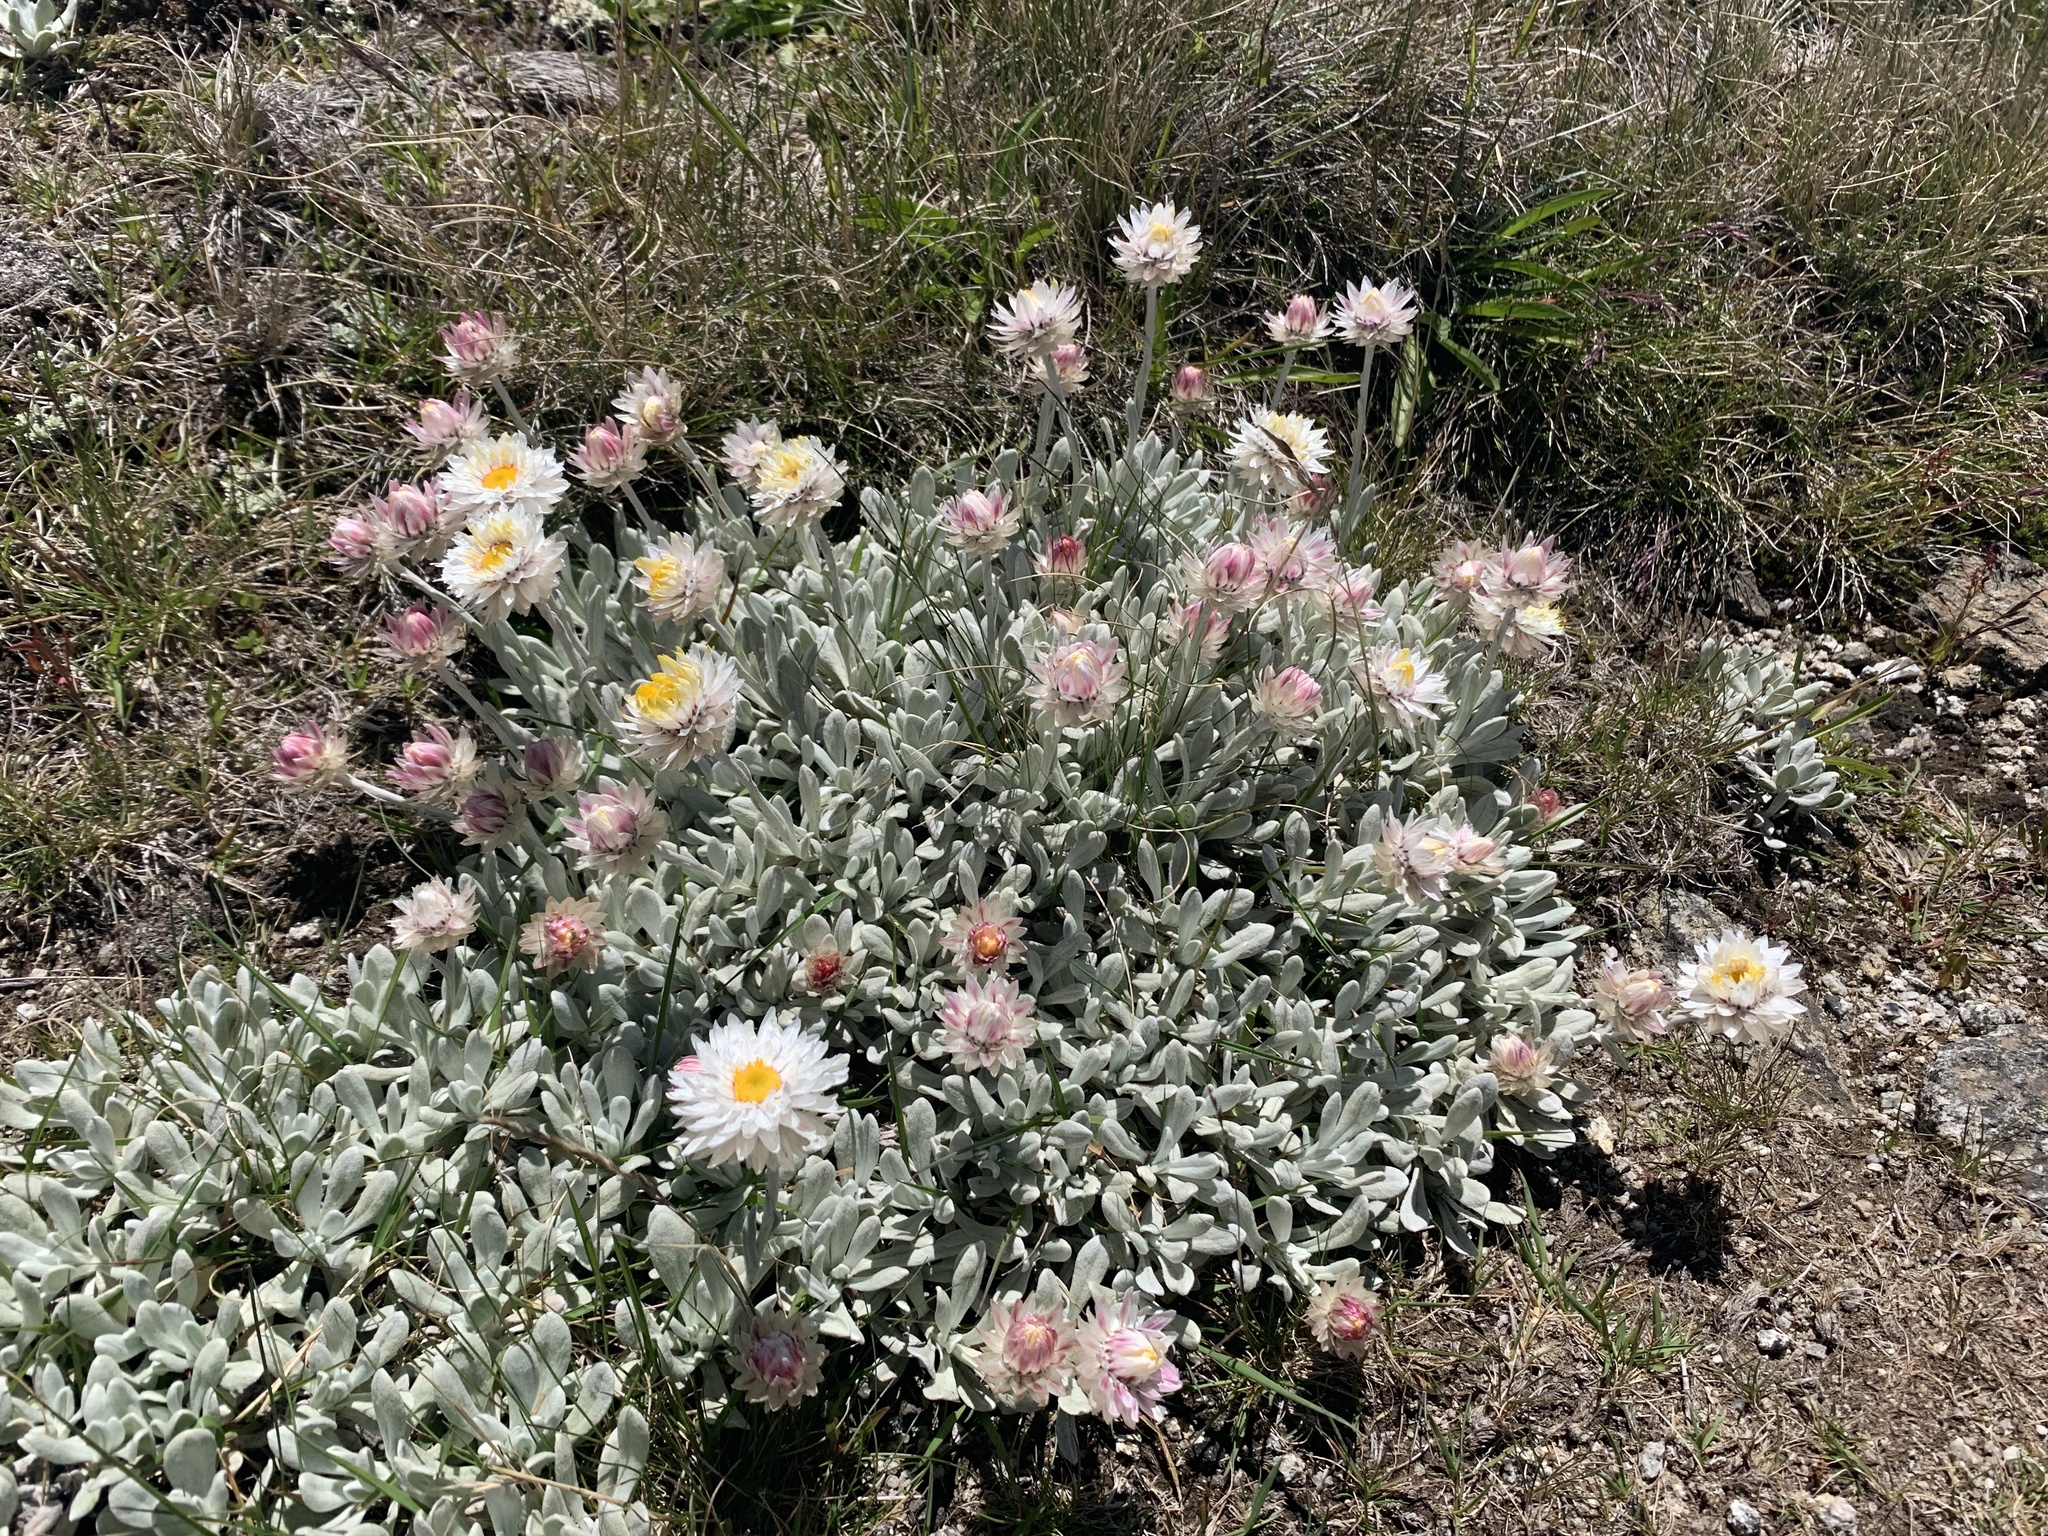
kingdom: Plantae
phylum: Tracheophyta
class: Magnoliopsida
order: Asterales
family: Asteraceae
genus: Leucochrysum
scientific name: Leucochrysum alpinum
